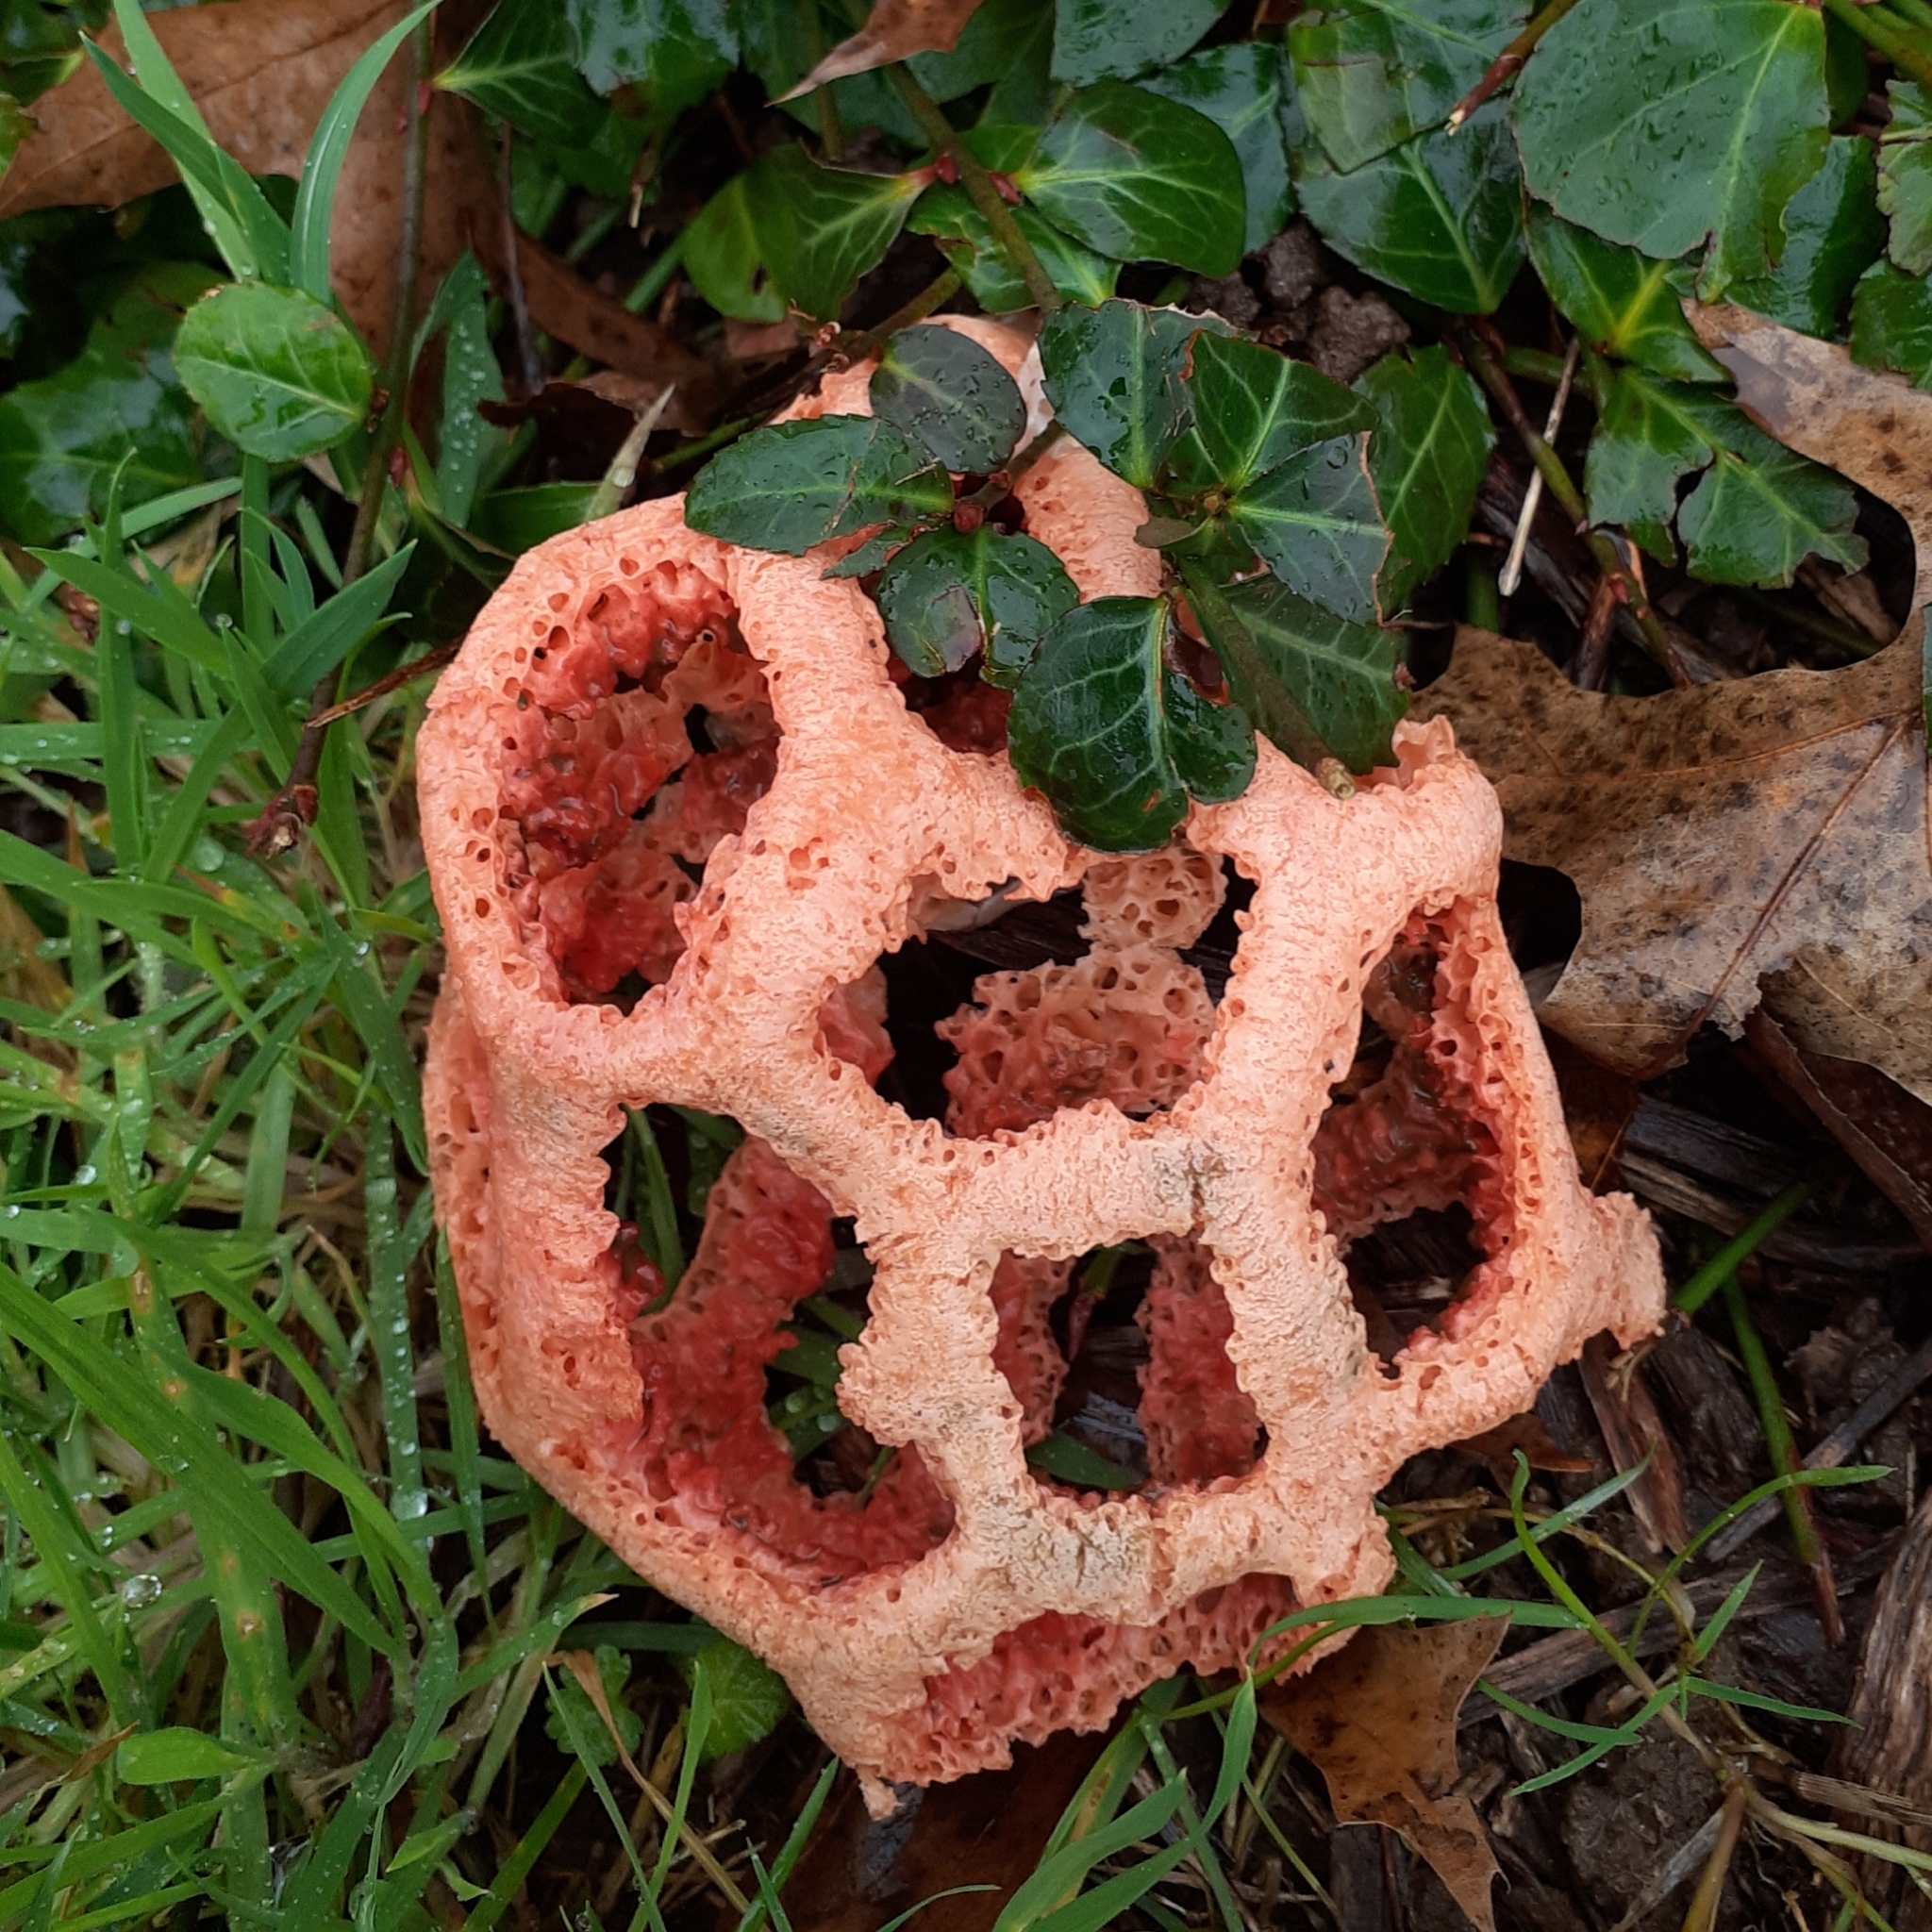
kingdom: Fungi
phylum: Basidiomycota
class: Agaricomycetes
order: Phallales
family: Phallaceae
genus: Clathrus
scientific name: Clathrus ruber
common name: Red cage
